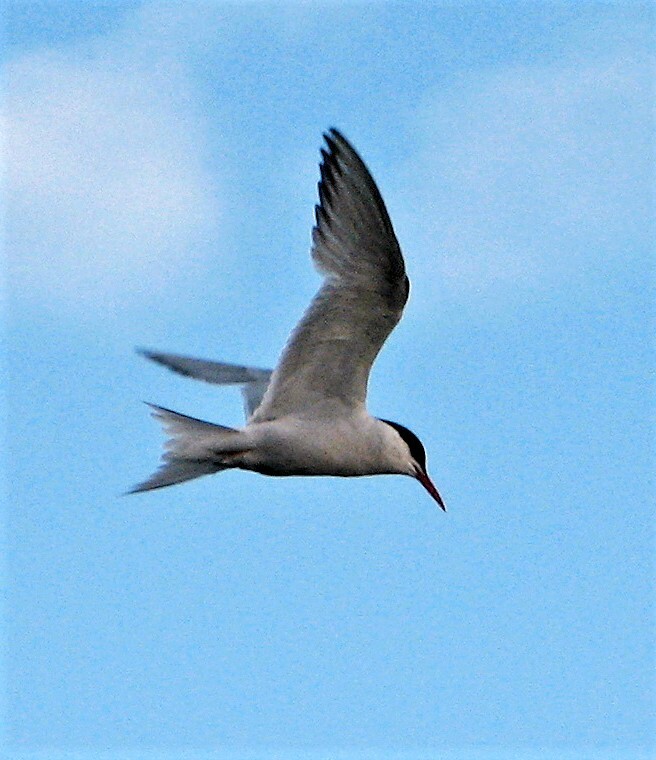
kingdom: Animalia
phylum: Chordata
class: Aves
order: Charadriiformes
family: Laridae
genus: Sterna
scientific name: Sterna hirundinacea
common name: South american tern
